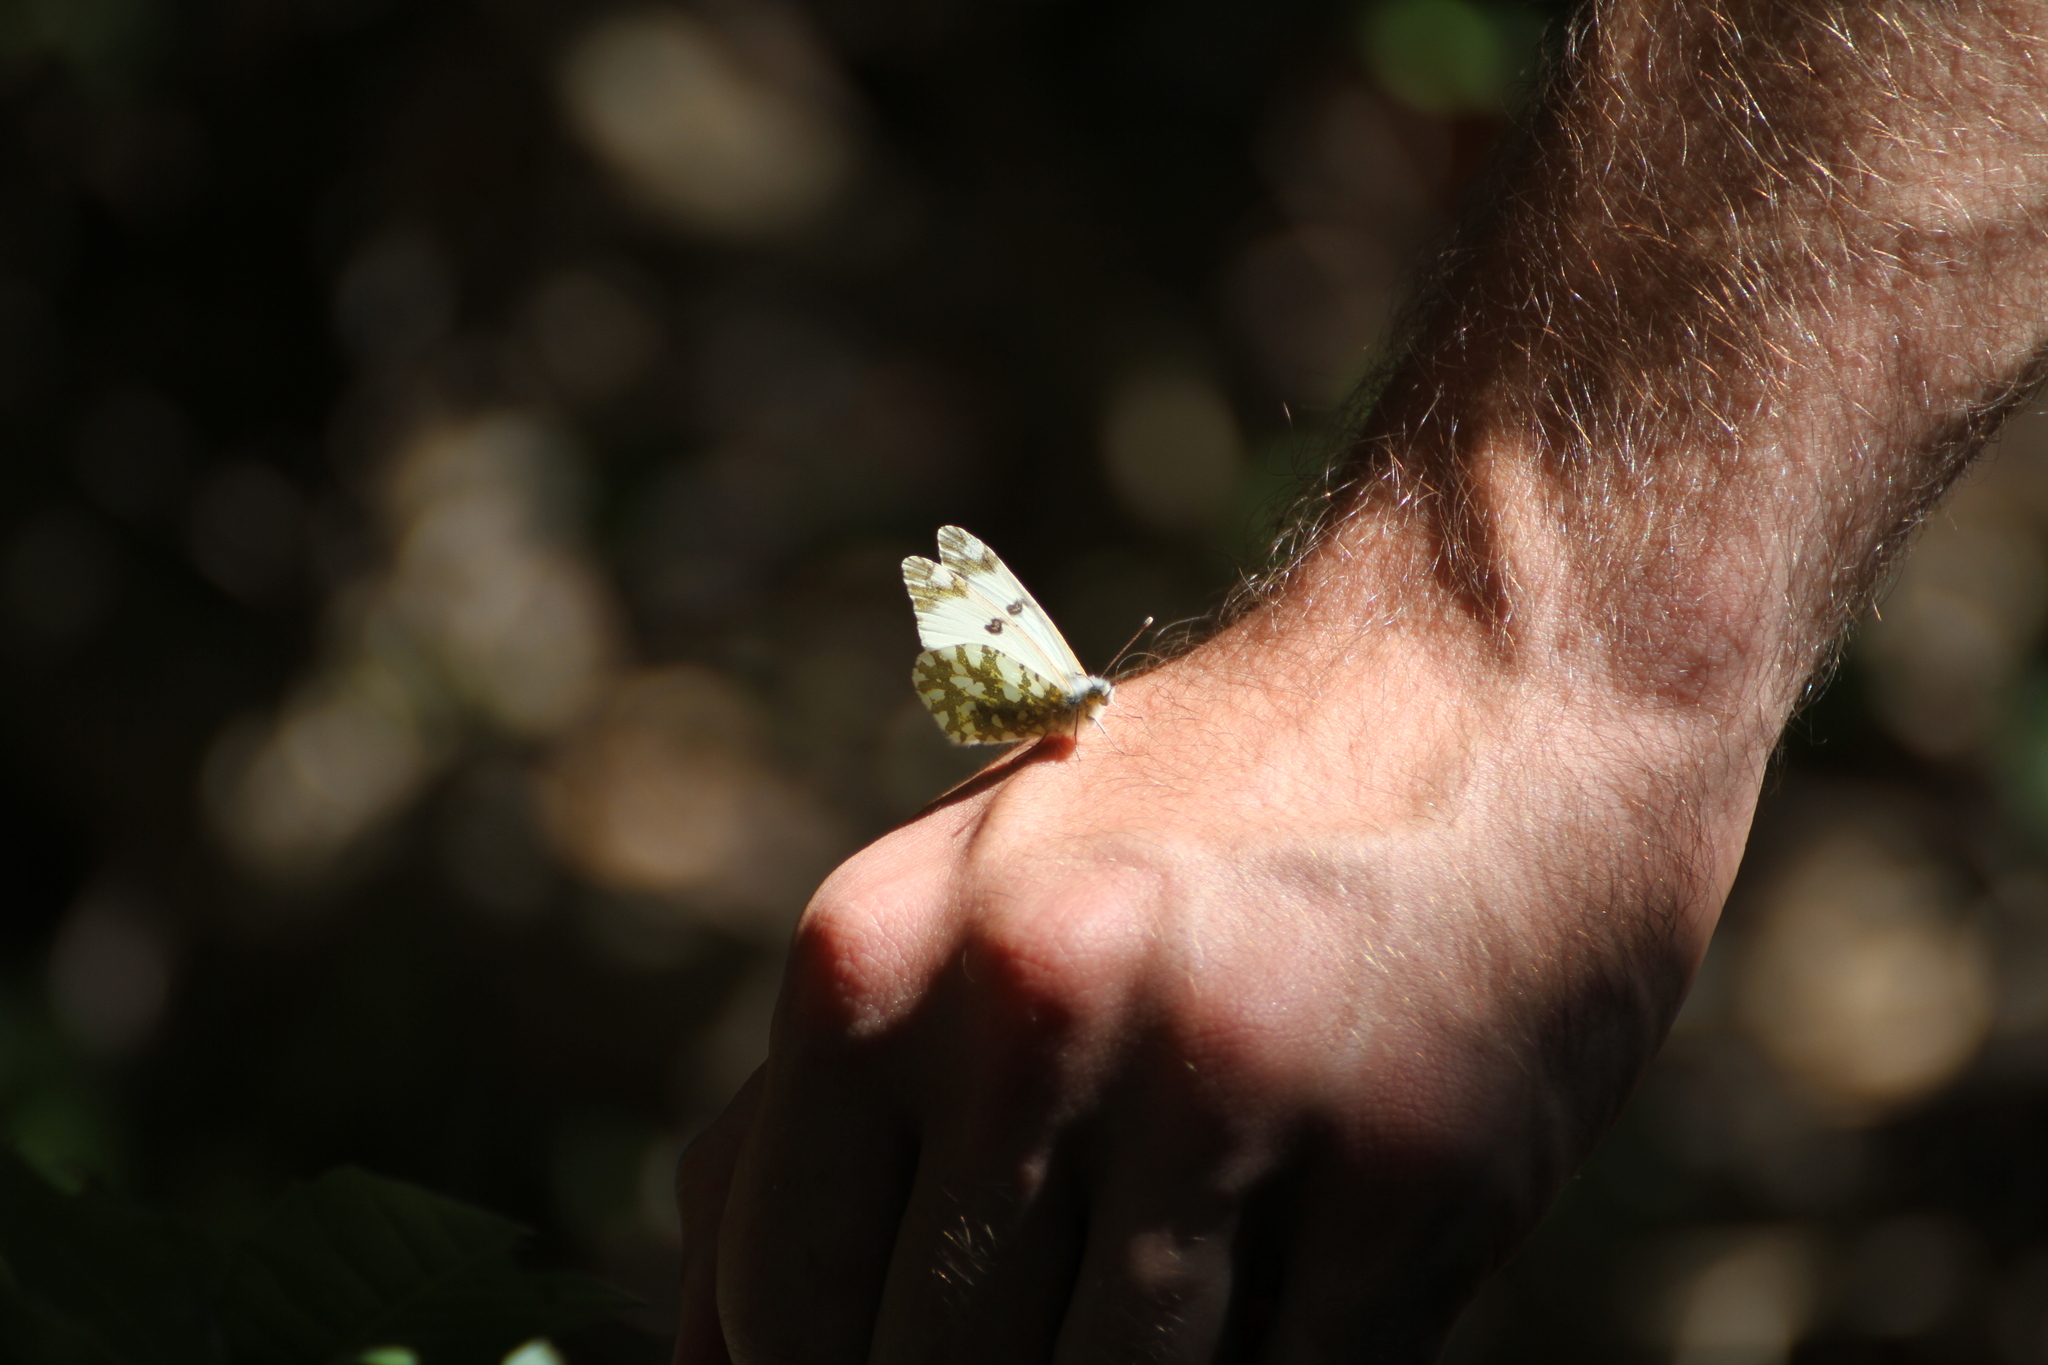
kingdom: Animalia
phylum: Arthropoda
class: Insecta
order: Lepidoptera
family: Pieridae
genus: Euchloe
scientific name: Euchloe crameri
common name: Western dappled white
